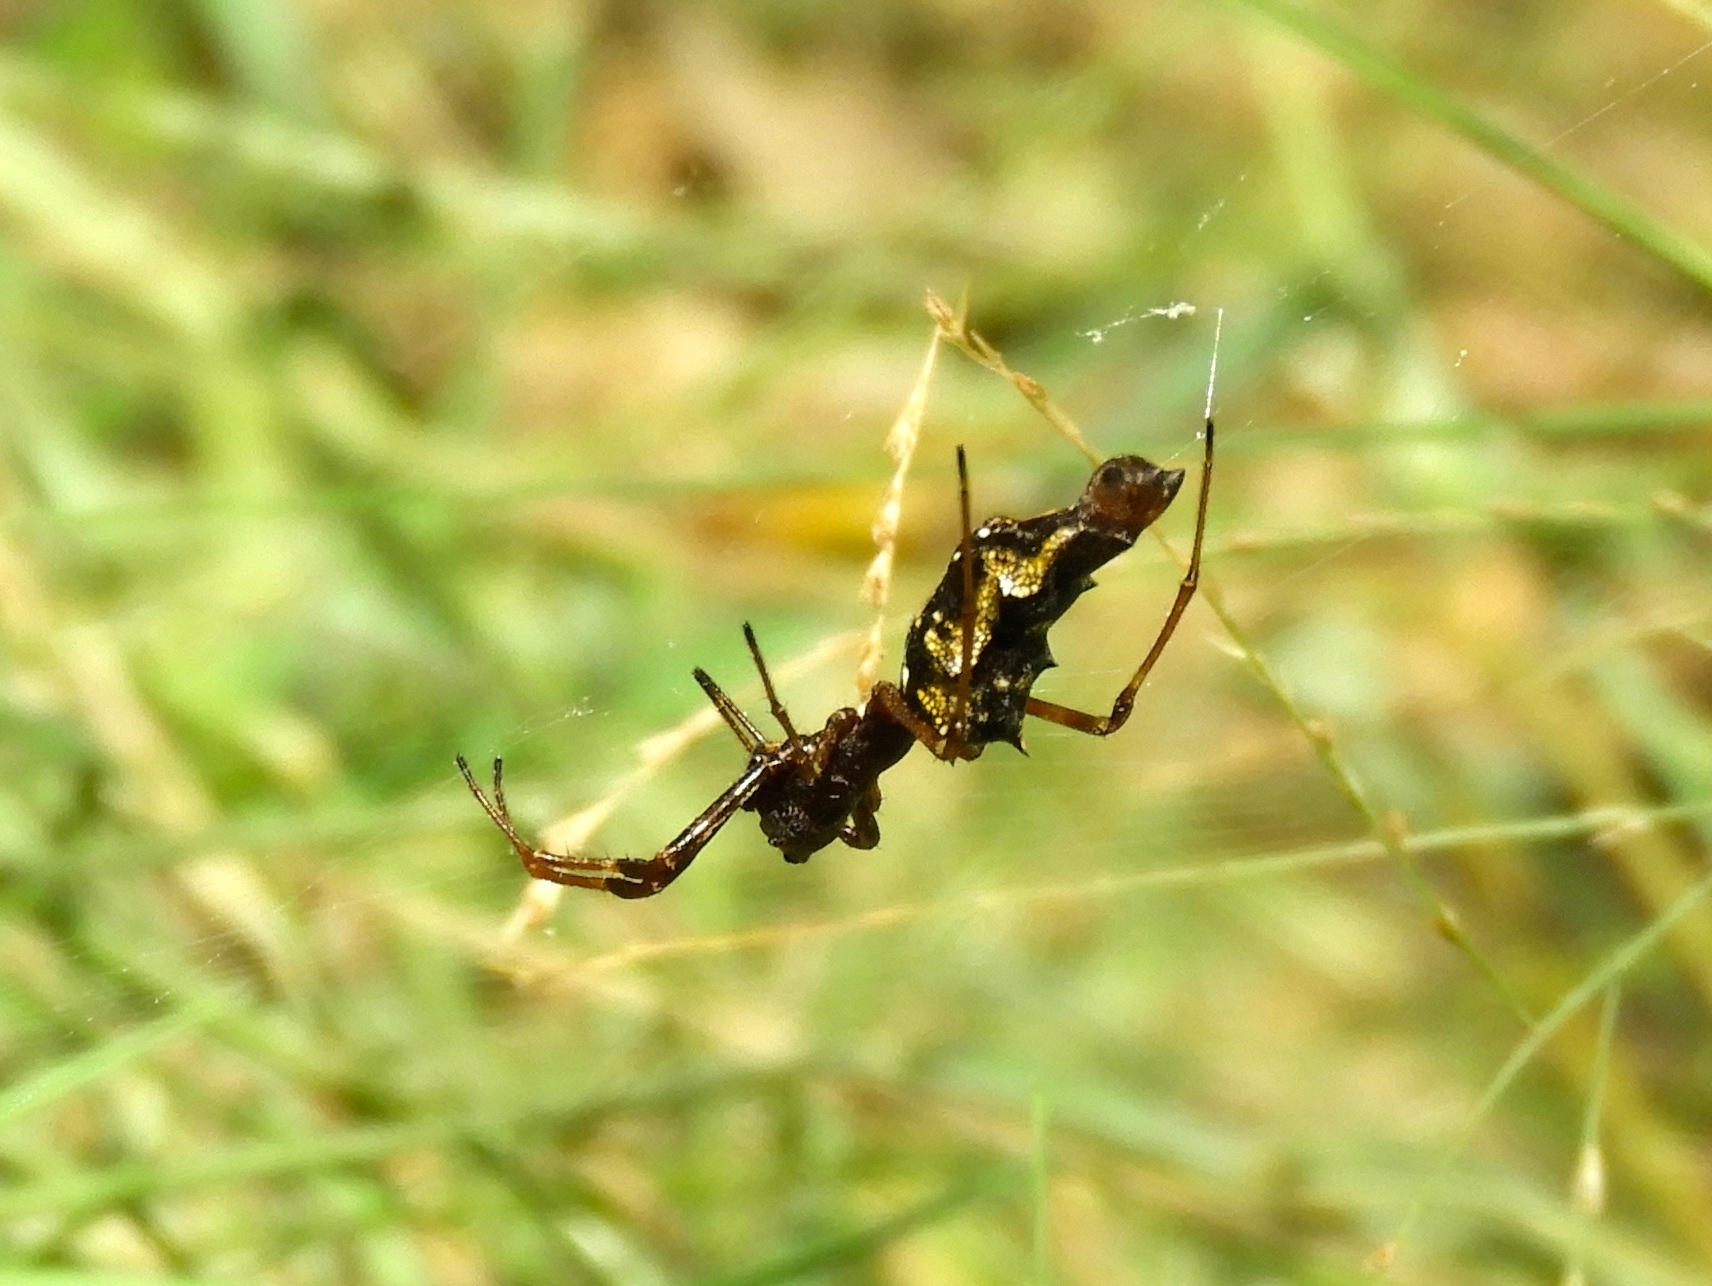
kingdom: Animalia
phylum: Arthropoda
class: Arachnida
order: Araneae
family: Araneidae
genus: Edricus
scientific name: Edricus productus
